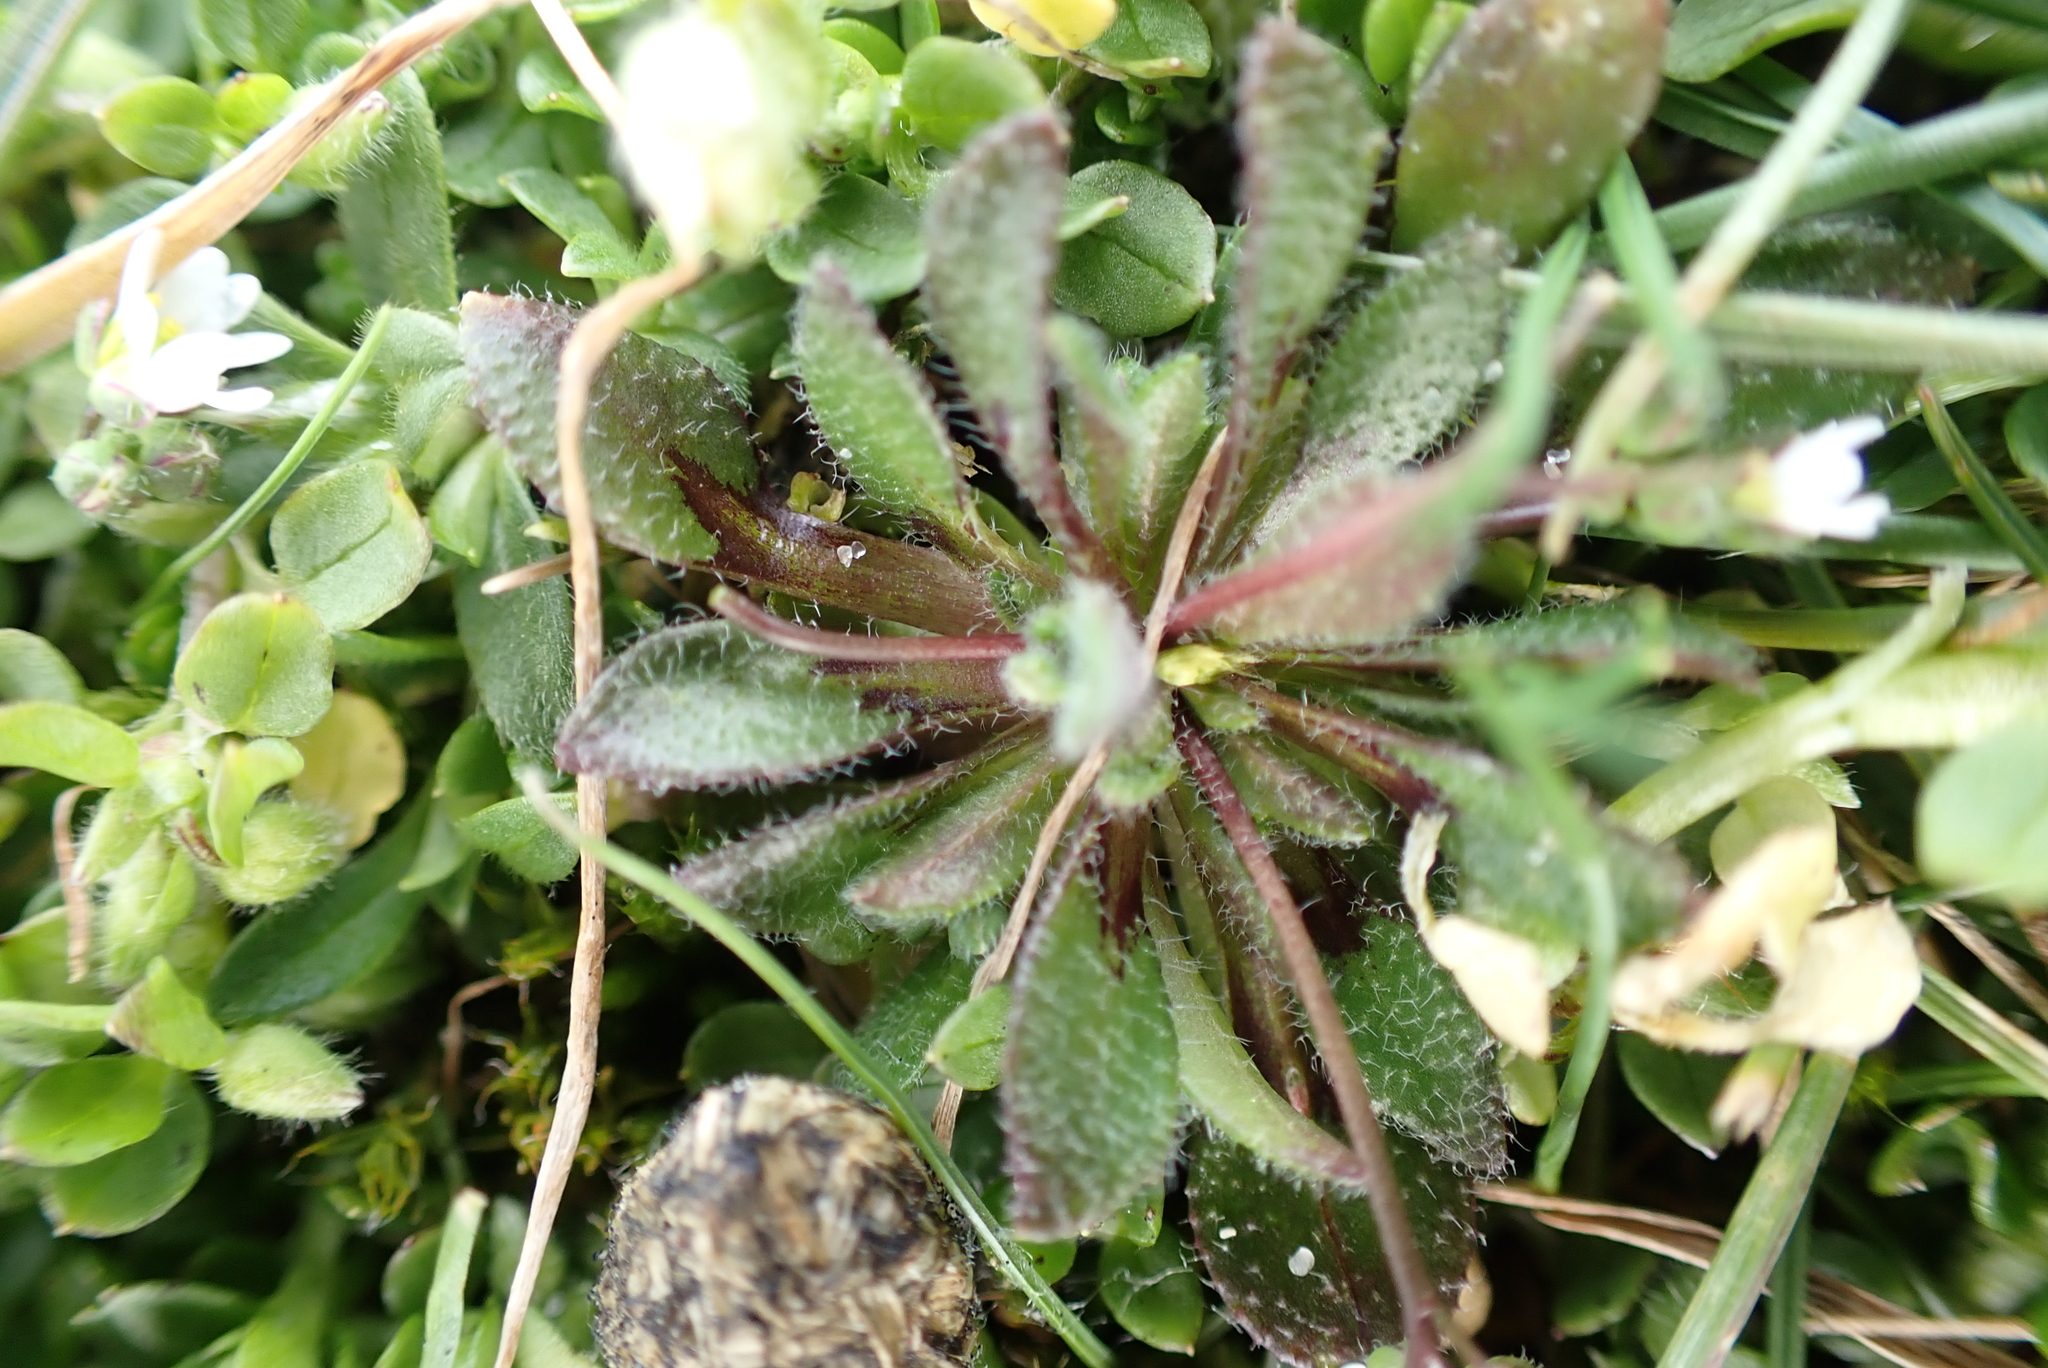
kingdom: Plantae
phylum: Tracheophyta
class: Magnoliopsida
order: Brassicales
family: Brassicaceae
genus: Draba
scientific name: Draba verna
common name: Spring draba
